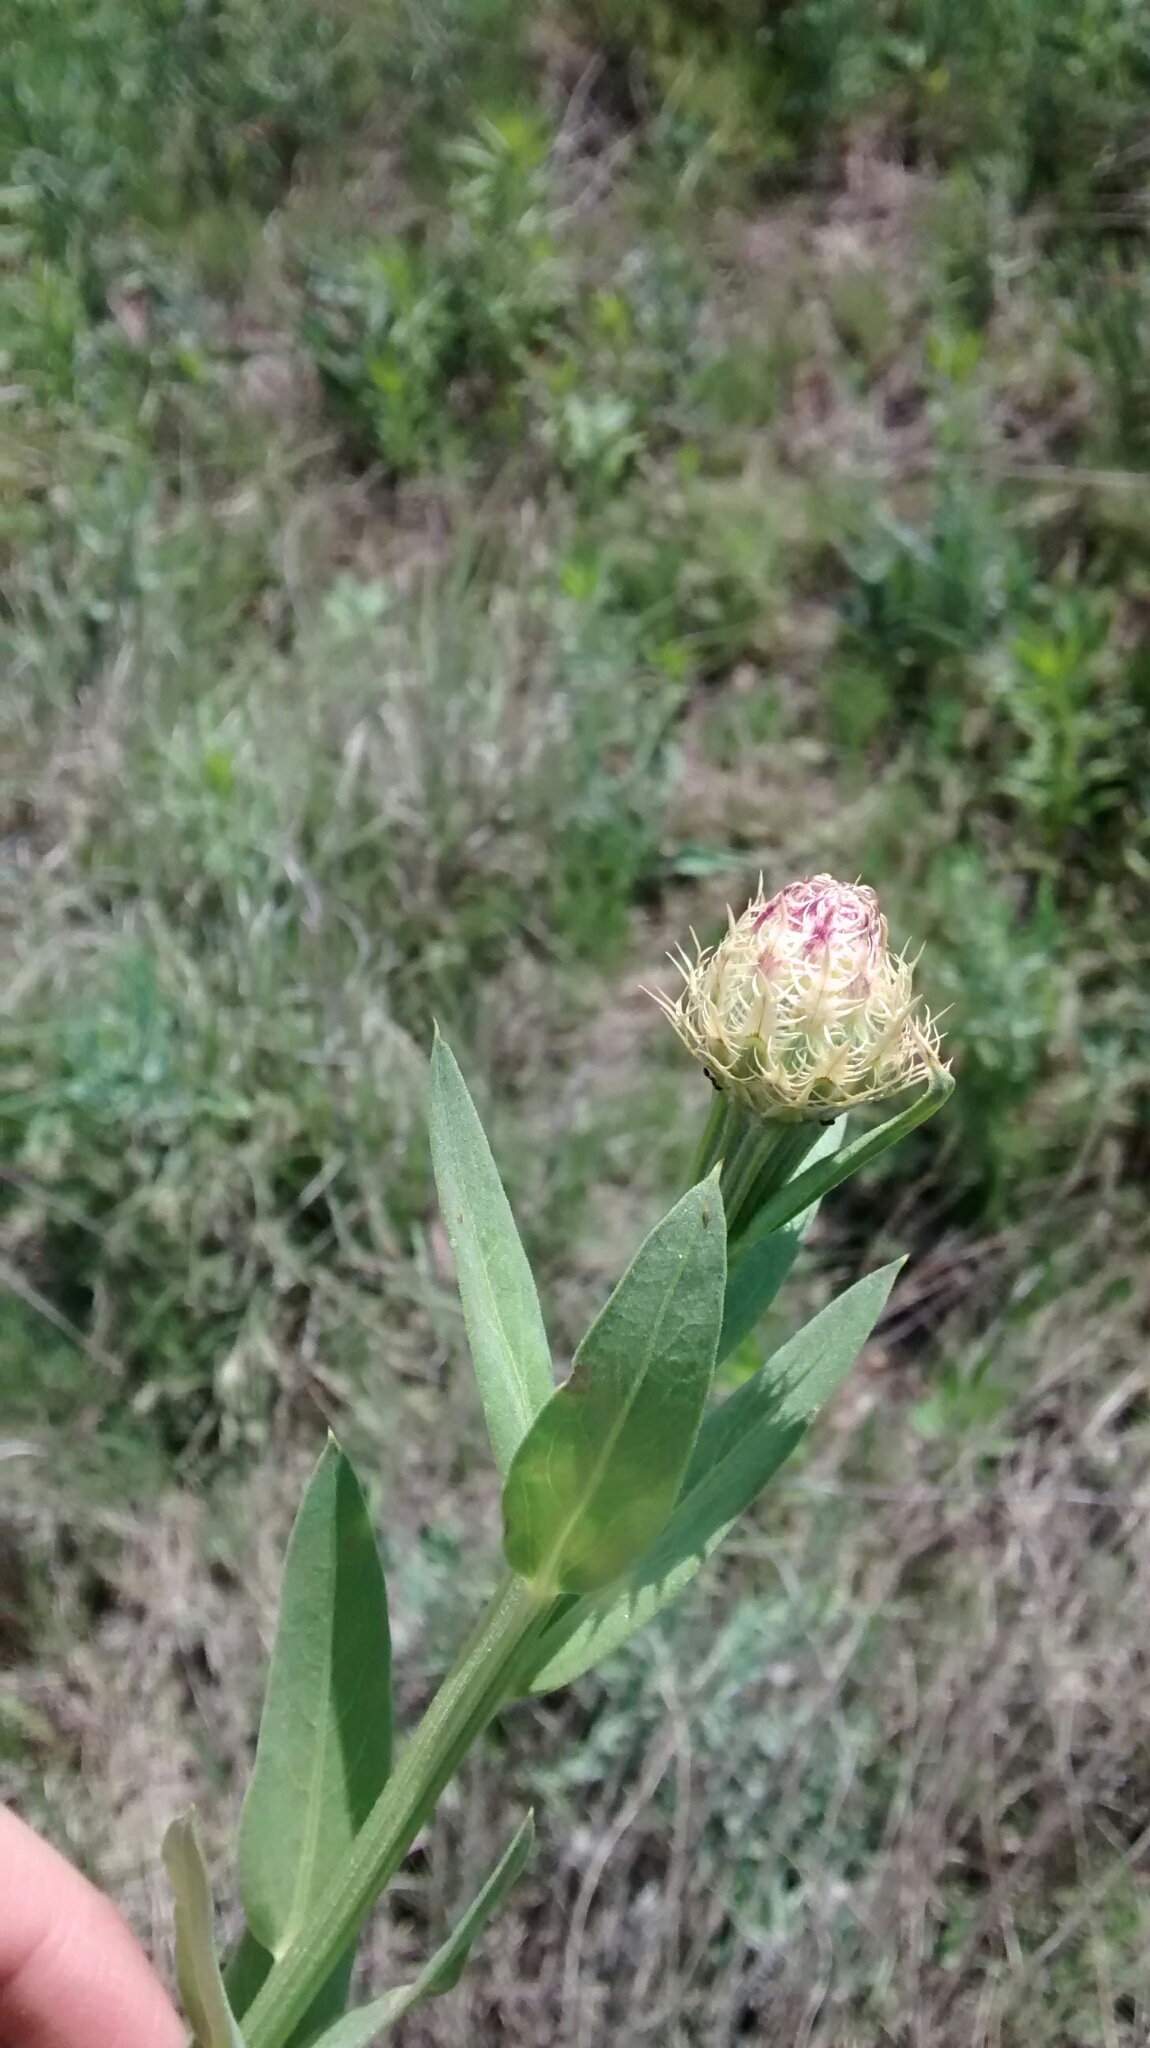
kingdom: Plantae
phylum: Tracheophyta
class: Magnoliopsida
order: Asterales
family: Asteraceae
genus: Plectocephalus
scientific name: Plectocephalus americanus
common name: American basket-flower
